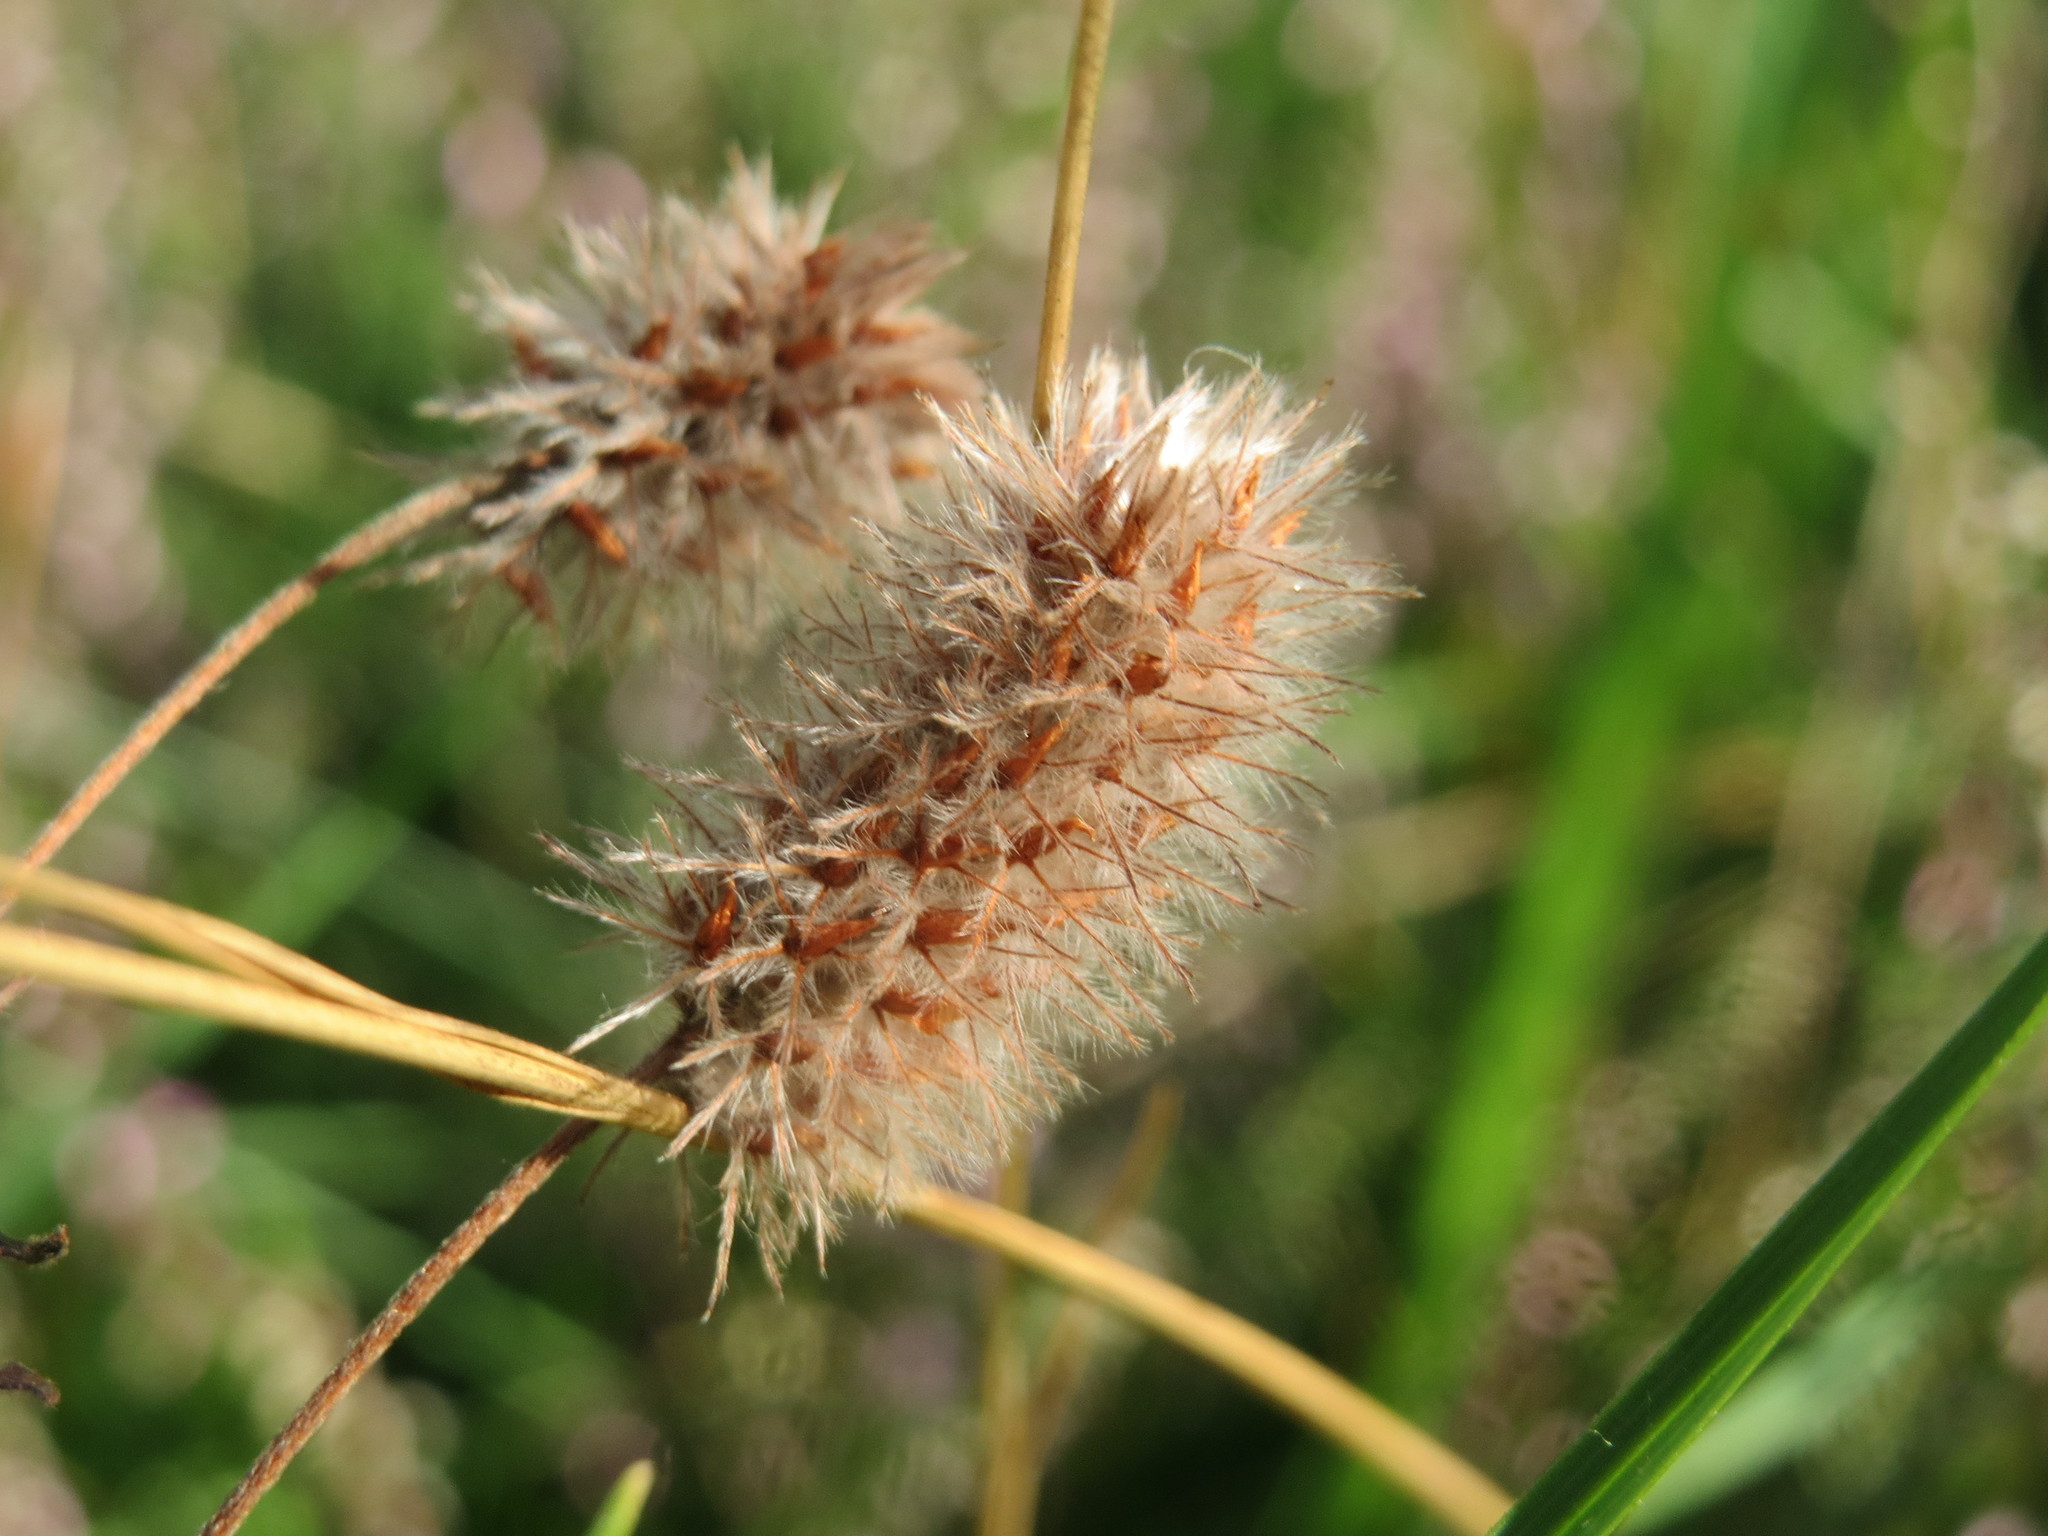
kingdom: Plantae
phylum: Tracheophyta
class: Magnoliopsida
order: Fabales
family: Fabaceae
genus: Trifolium
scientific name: Trifolium arvense
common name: Hare's-foot clover
